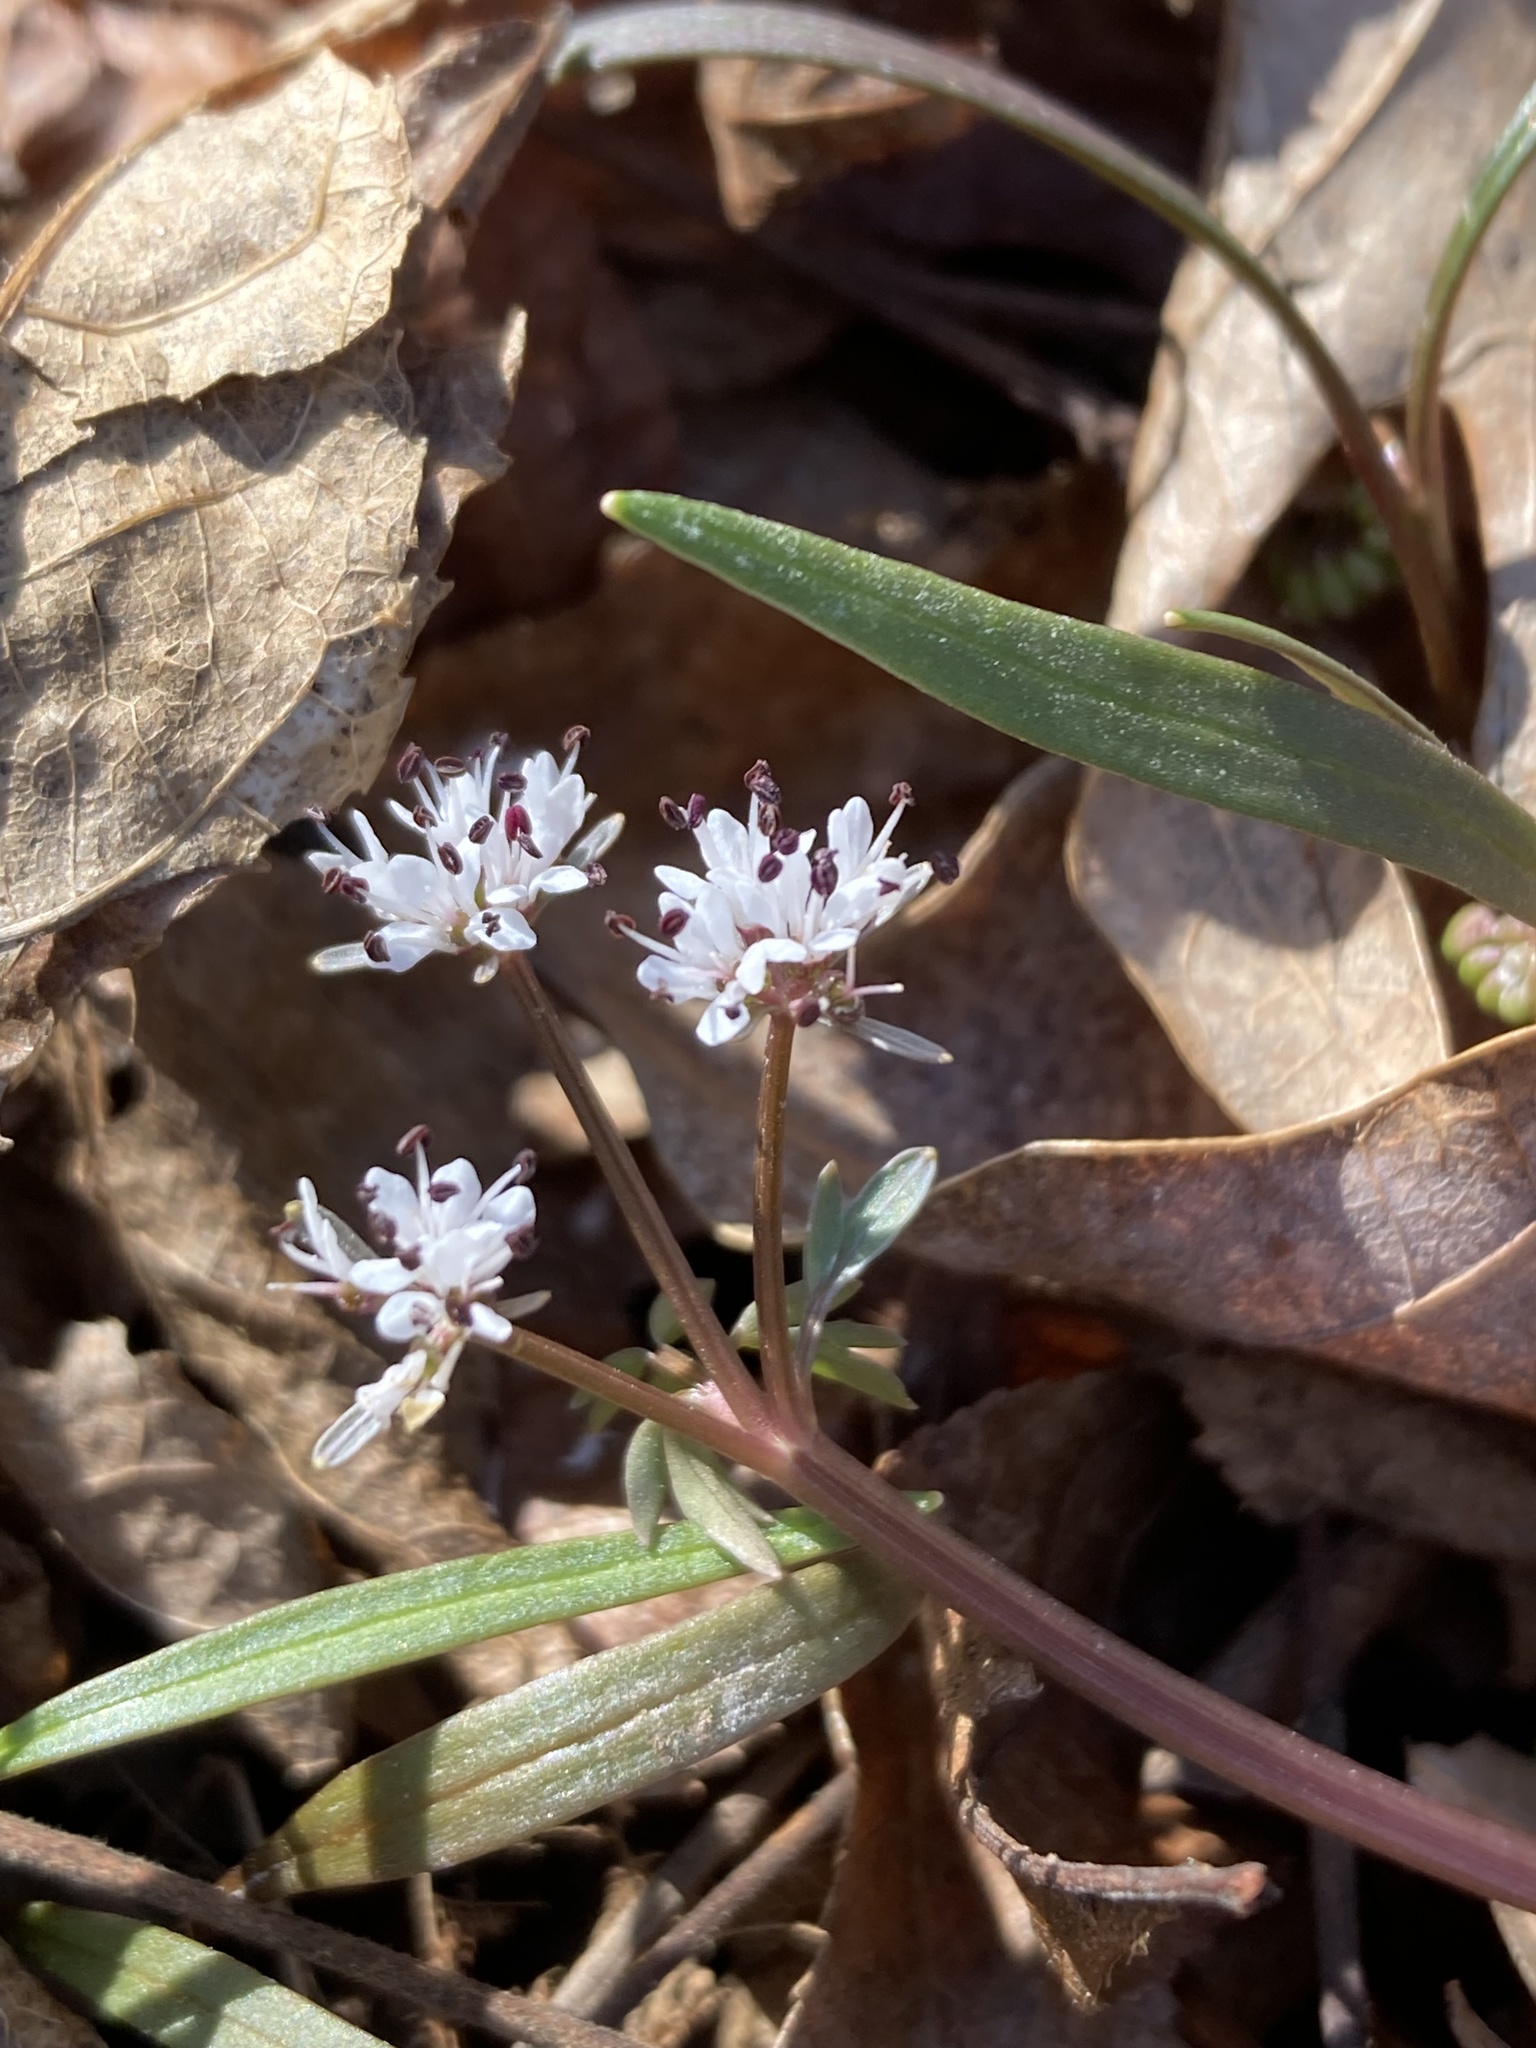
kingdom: Plantae
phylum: Tracheophyta
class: Magnoliopsida
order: Apiales
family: Apiaceae
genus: Erigenia
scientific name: Erigenia bulbosa
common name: Pepper-and-salt
